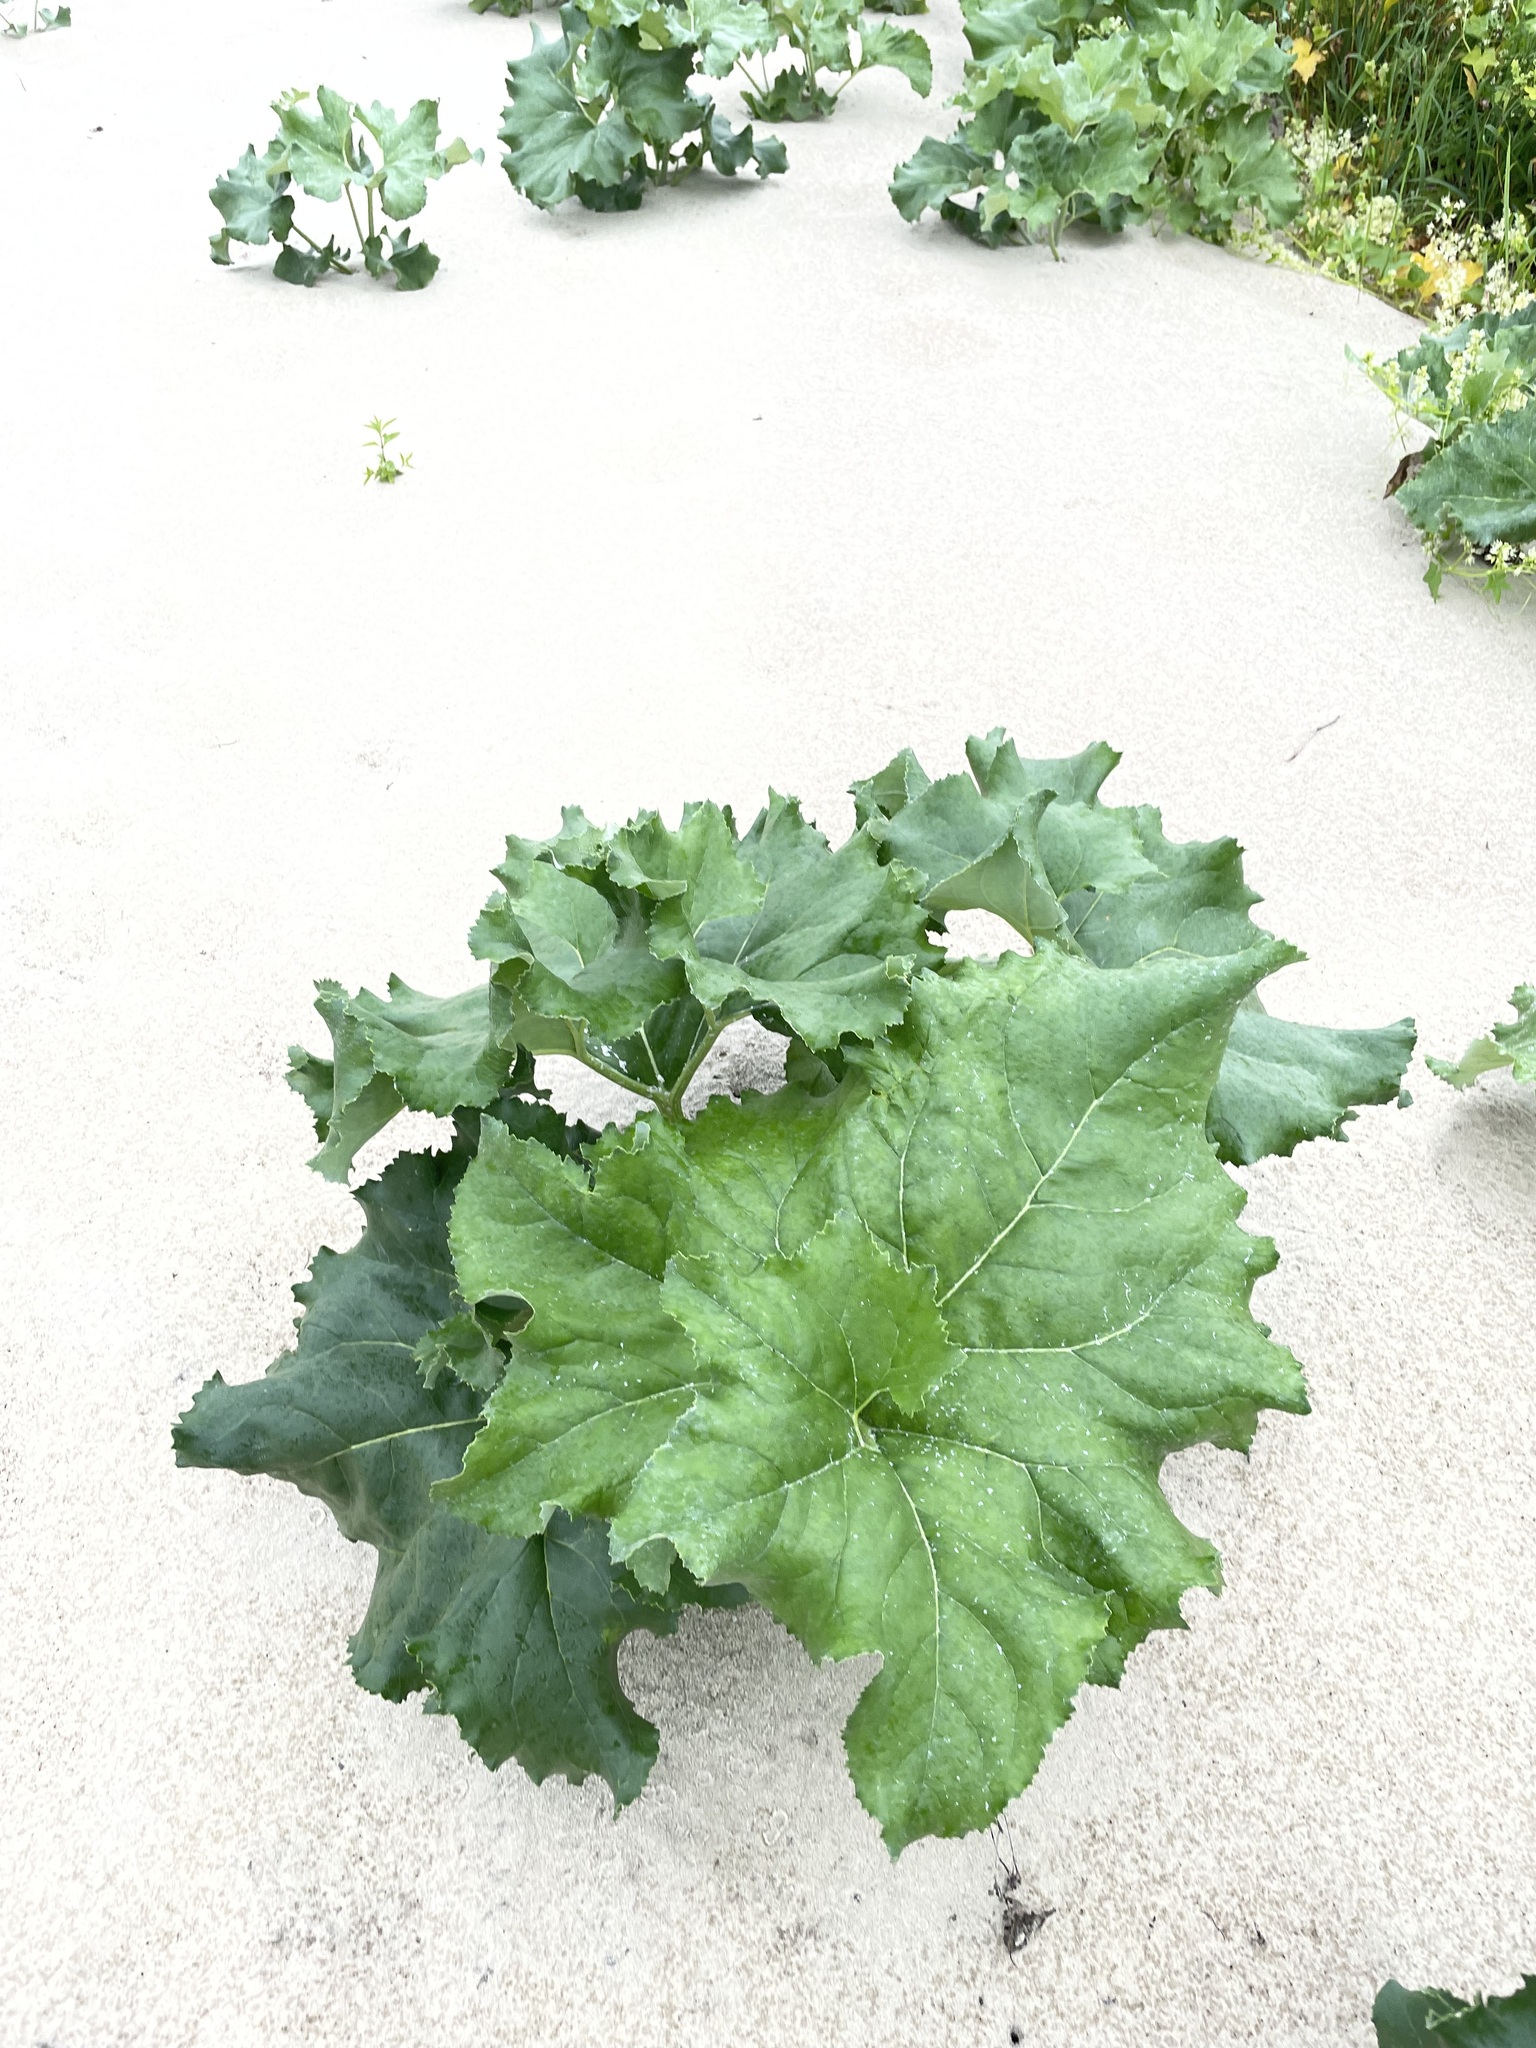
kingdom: Plantae
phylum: Tracheophyta
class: Magnoliopsida
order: Asterales
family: Asteraceae
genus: Petasites
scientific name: Petasites spurius
